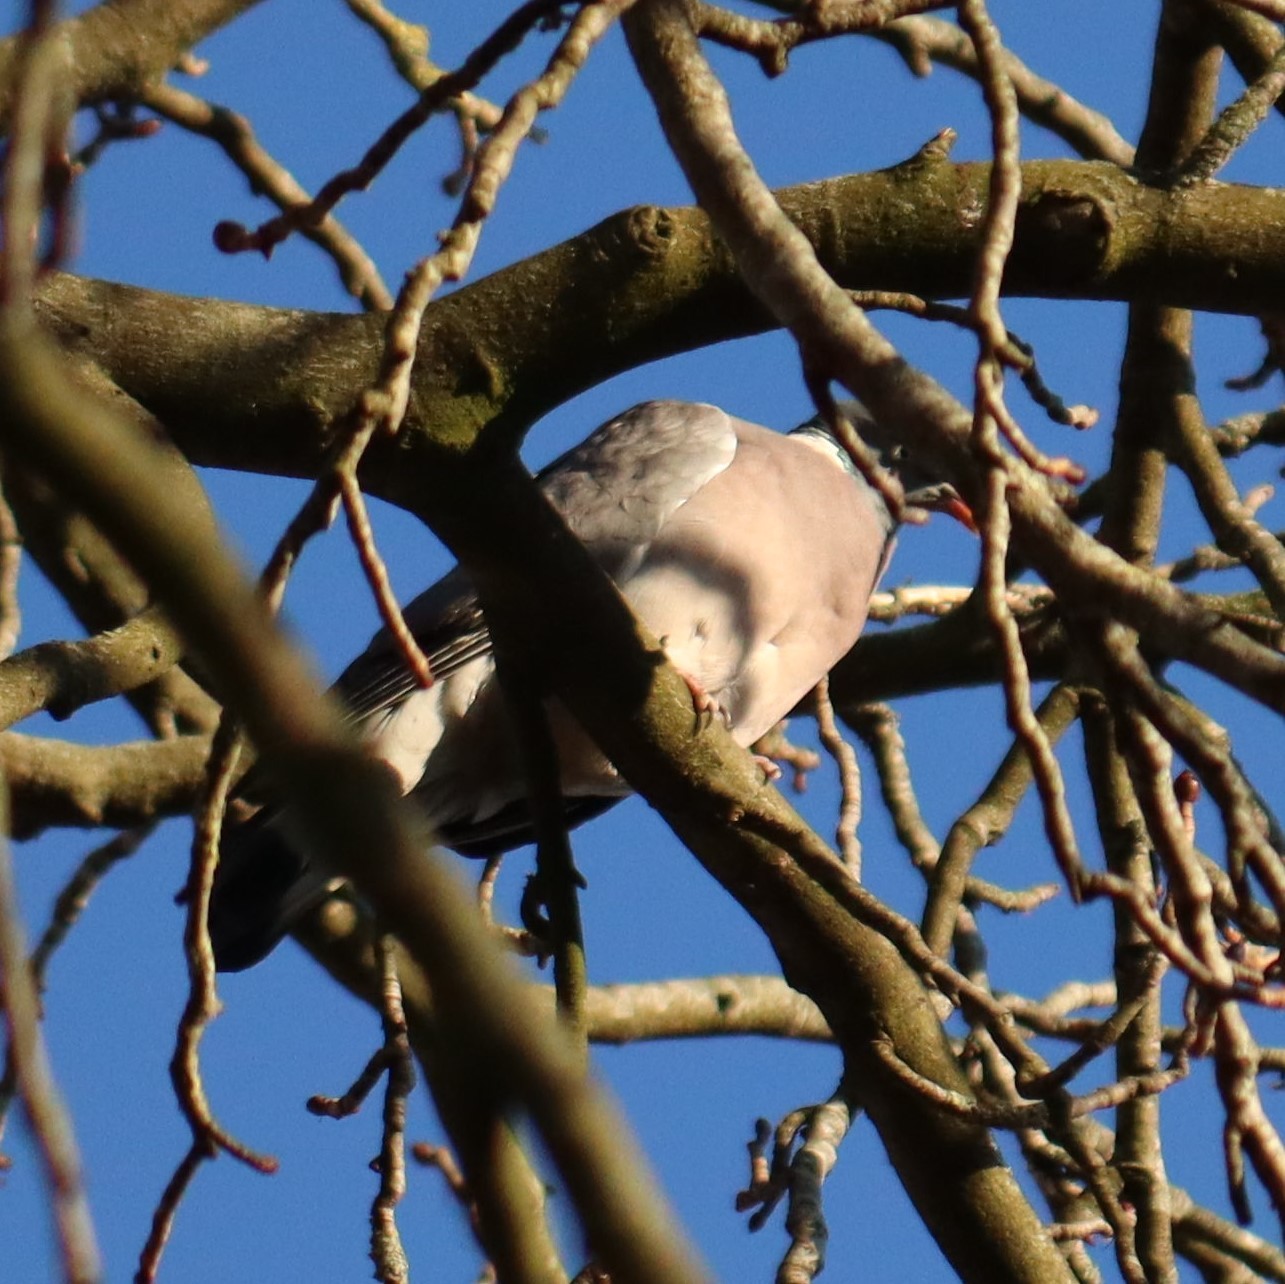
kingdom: Animalia
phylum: Chordata
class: Aves
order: Columbiformes
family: Columbidae
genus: Columba
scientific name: Columba palumbus
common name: Common wood pigeon
